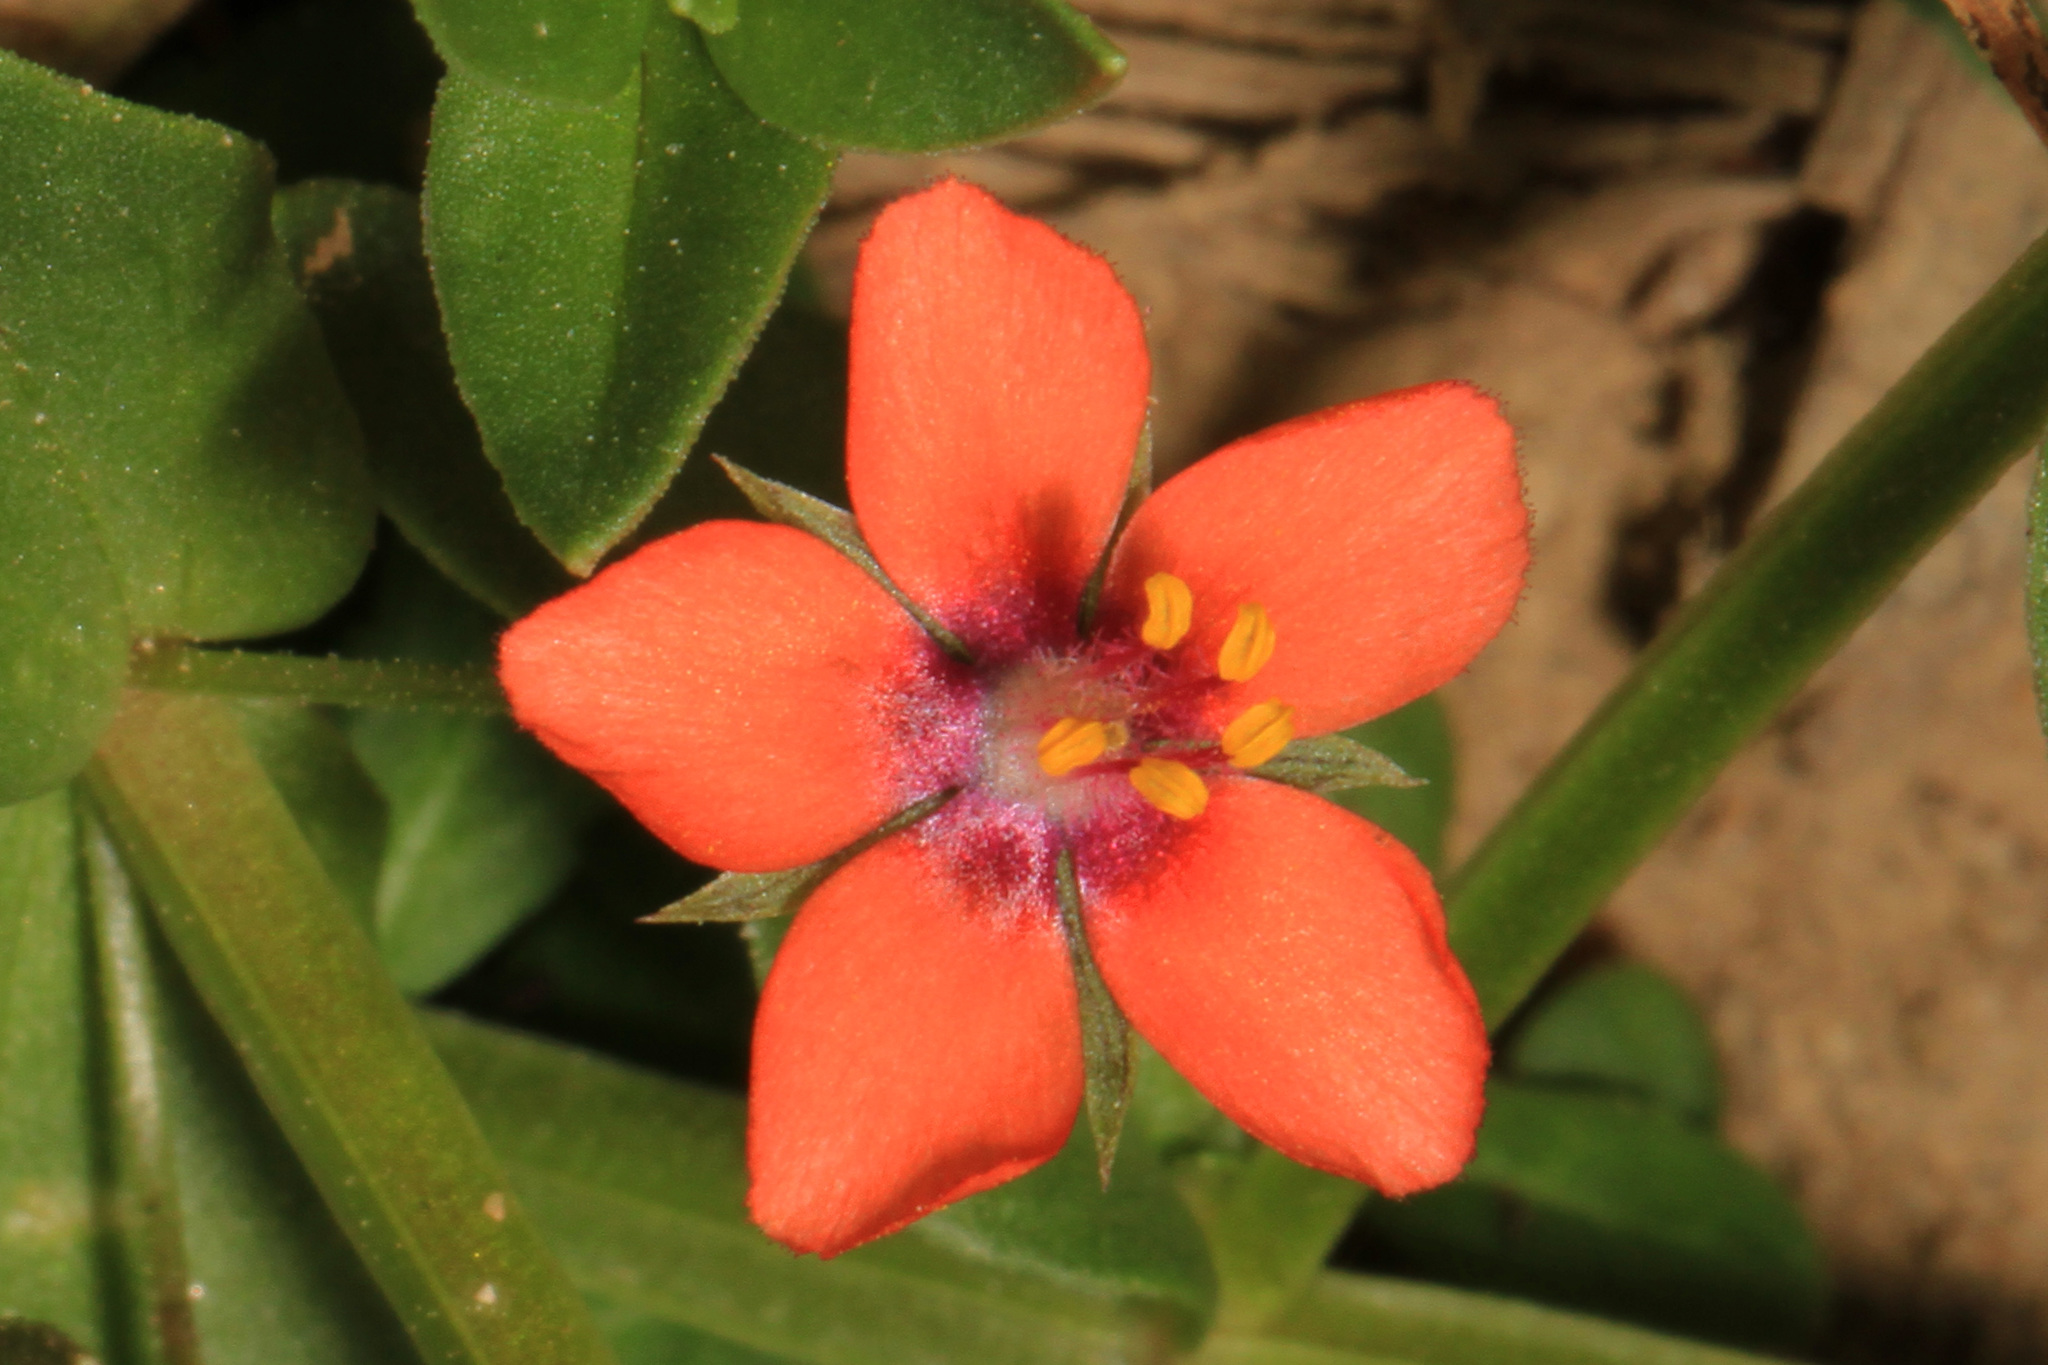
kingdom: Plantae
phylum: Tracheophyta
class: Magnoliopsida
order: Ericales
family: Primulaceae
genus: Lysimachia
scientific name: Lysimachia arvensis
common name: Scarlet pimpernel
